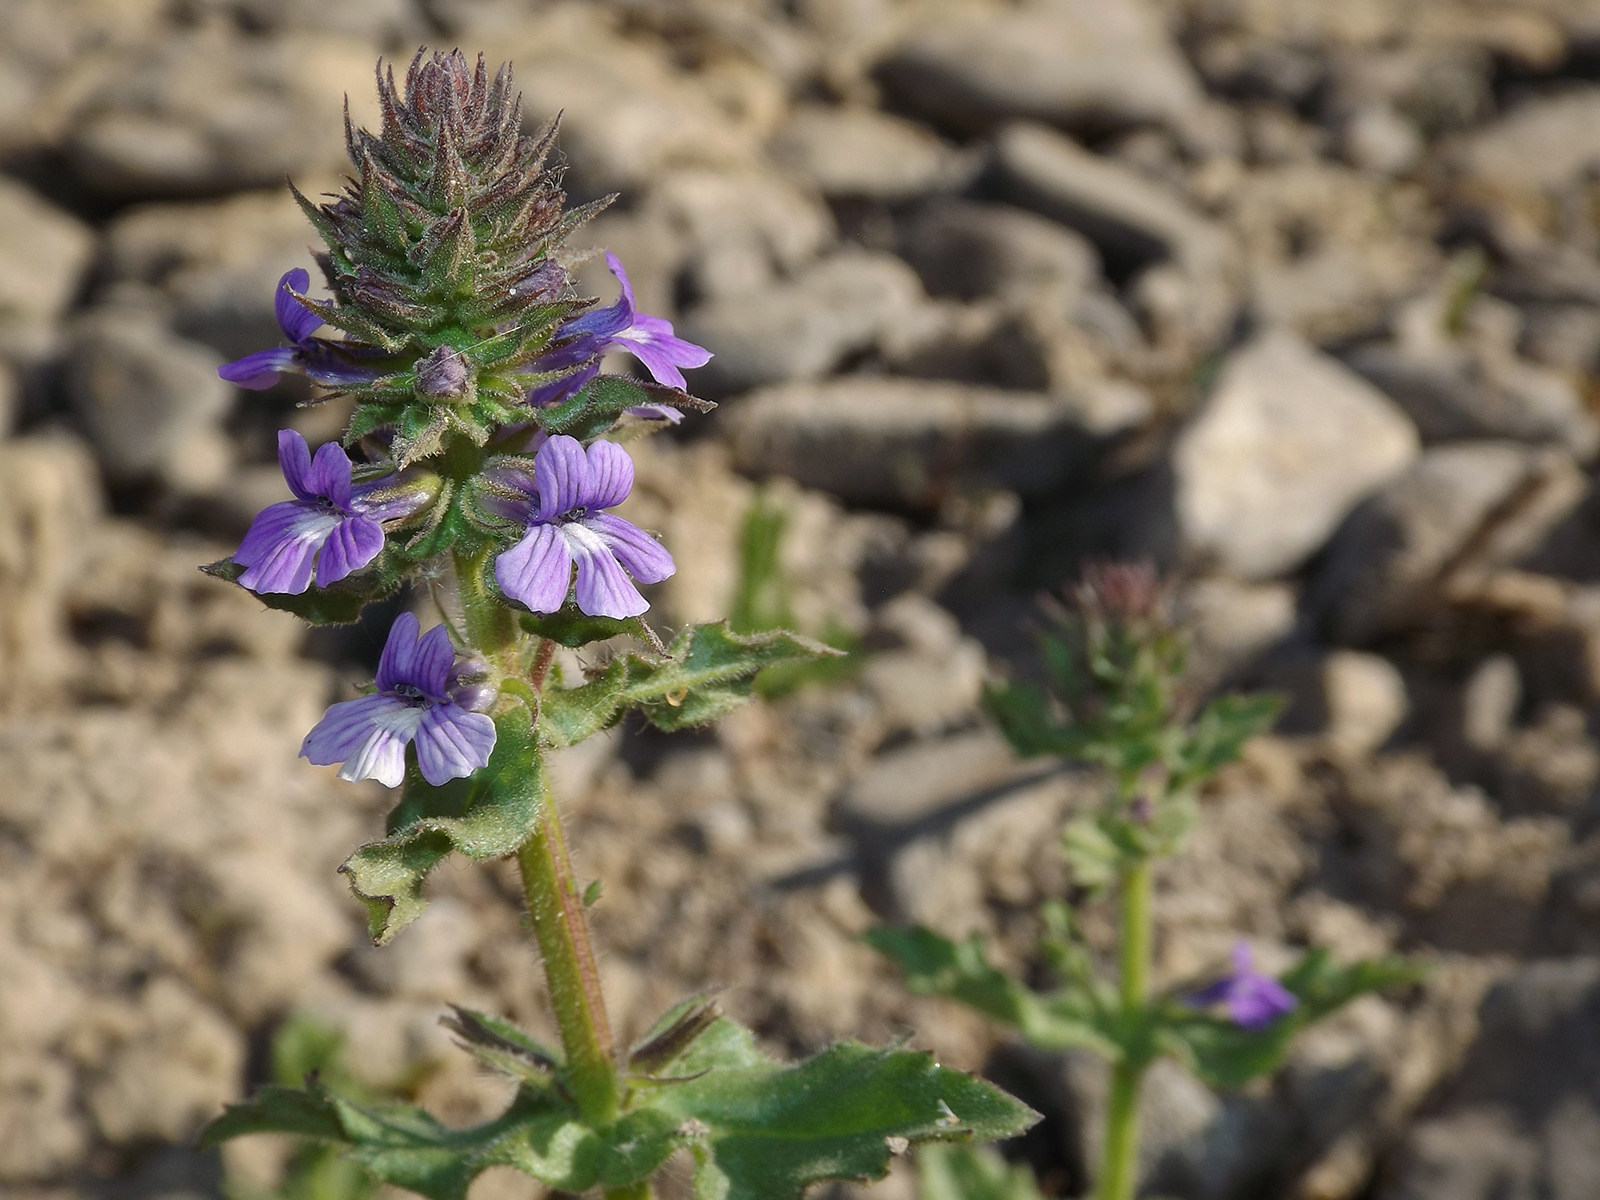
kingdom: Plantae
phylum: Tracheophyta
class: Magnoliopsida
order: Lamiales
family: Plantaginaceae
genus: Stemodia
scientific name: Stemodia durantifolia
